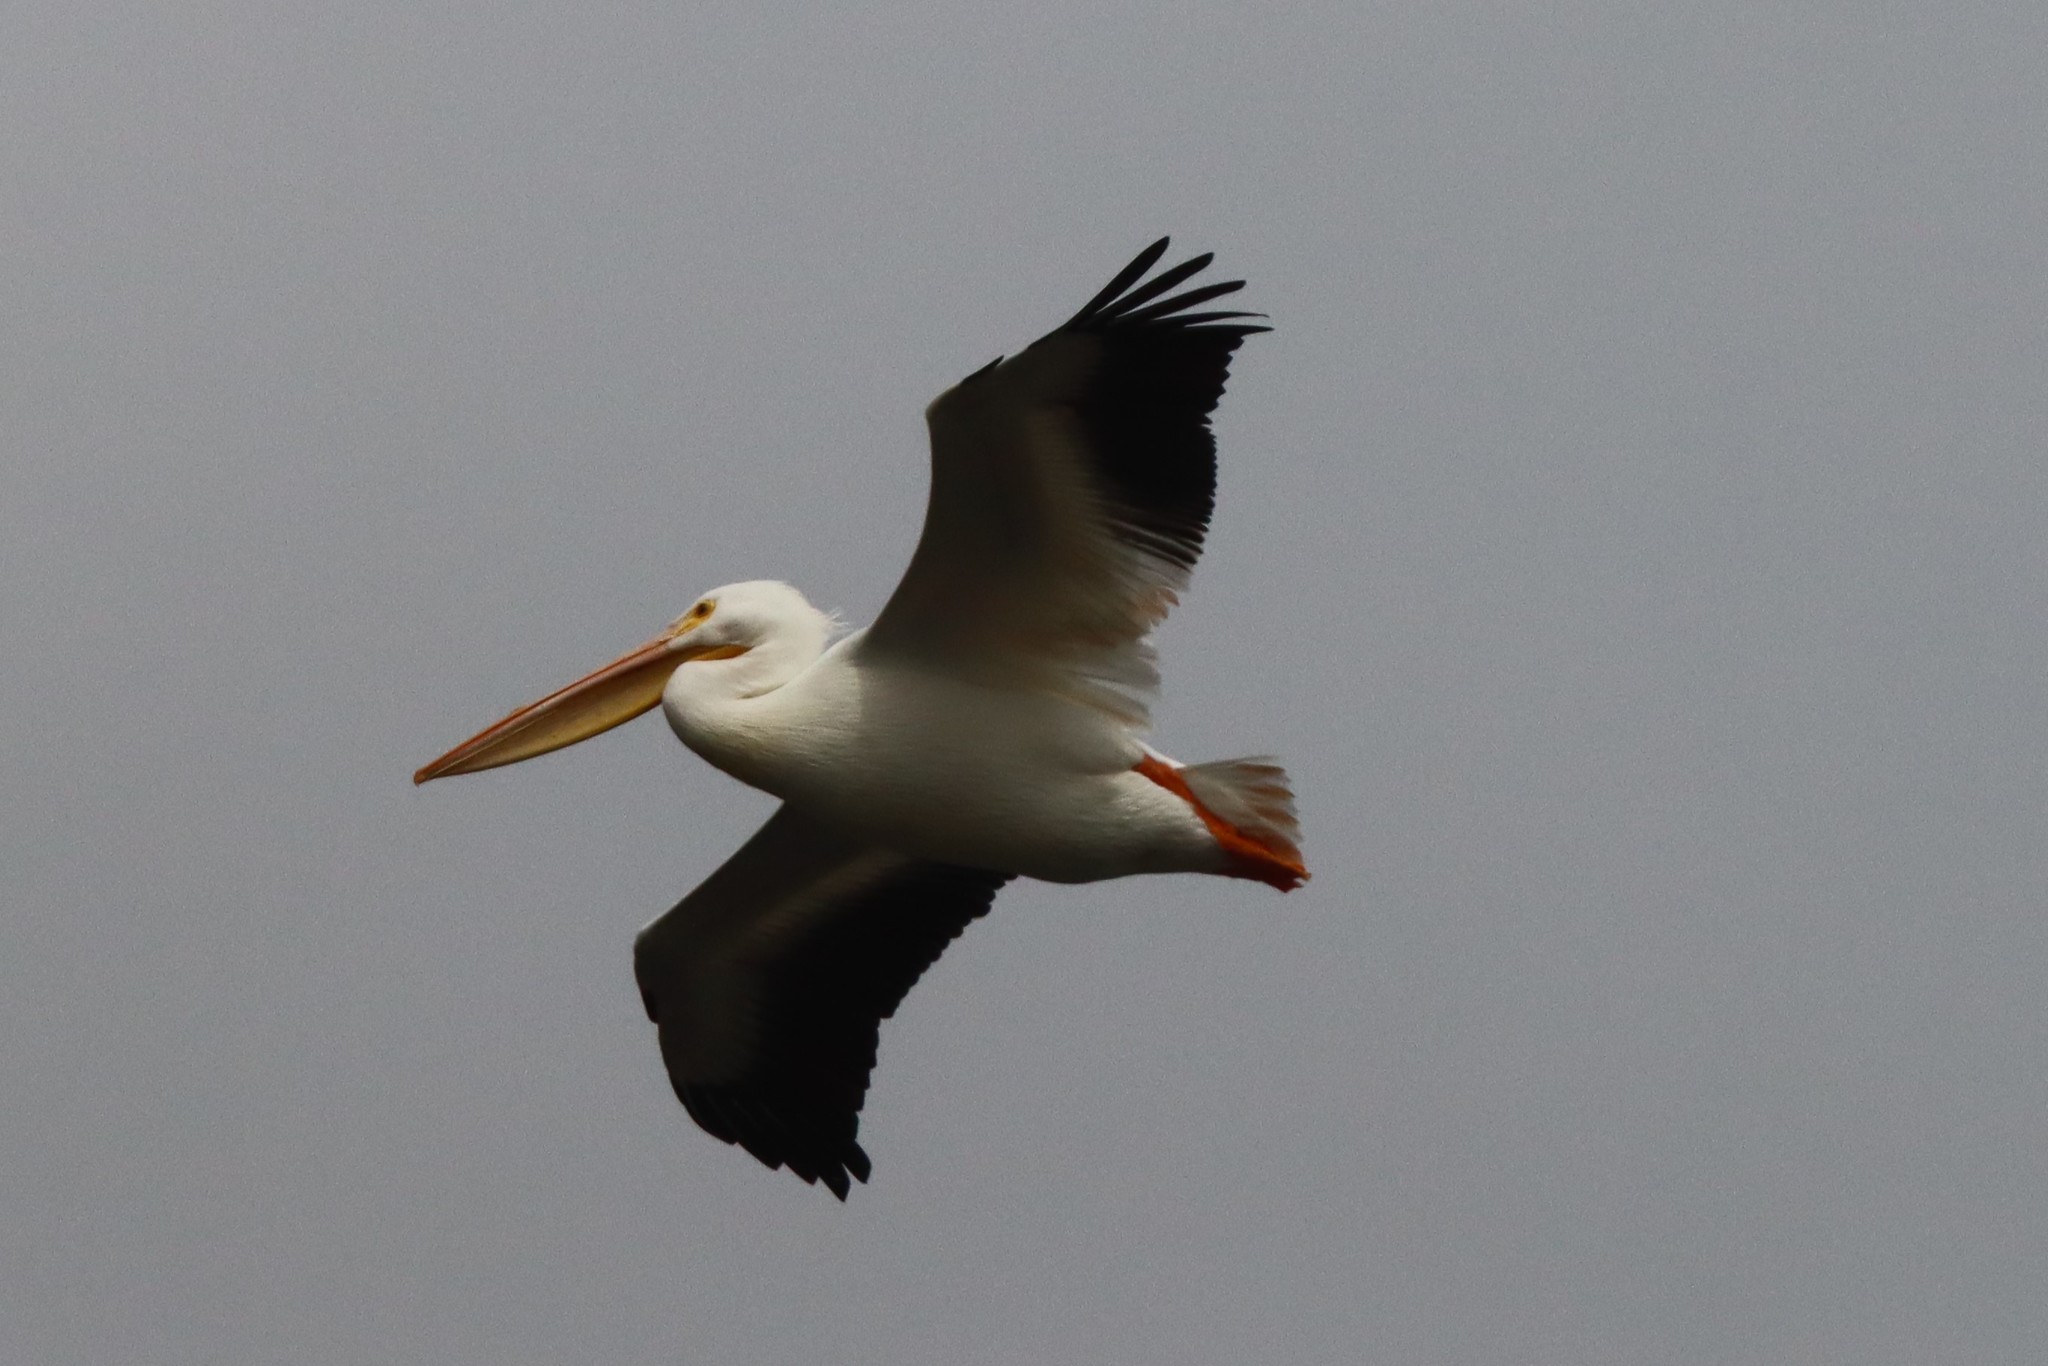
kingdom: Animalia
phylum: Chordata
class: Aves
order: Pelecaniformes
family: Pelecanidae
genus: Pelecanus
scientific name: Pelecanus erythrorhynchos
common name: American white pelican
